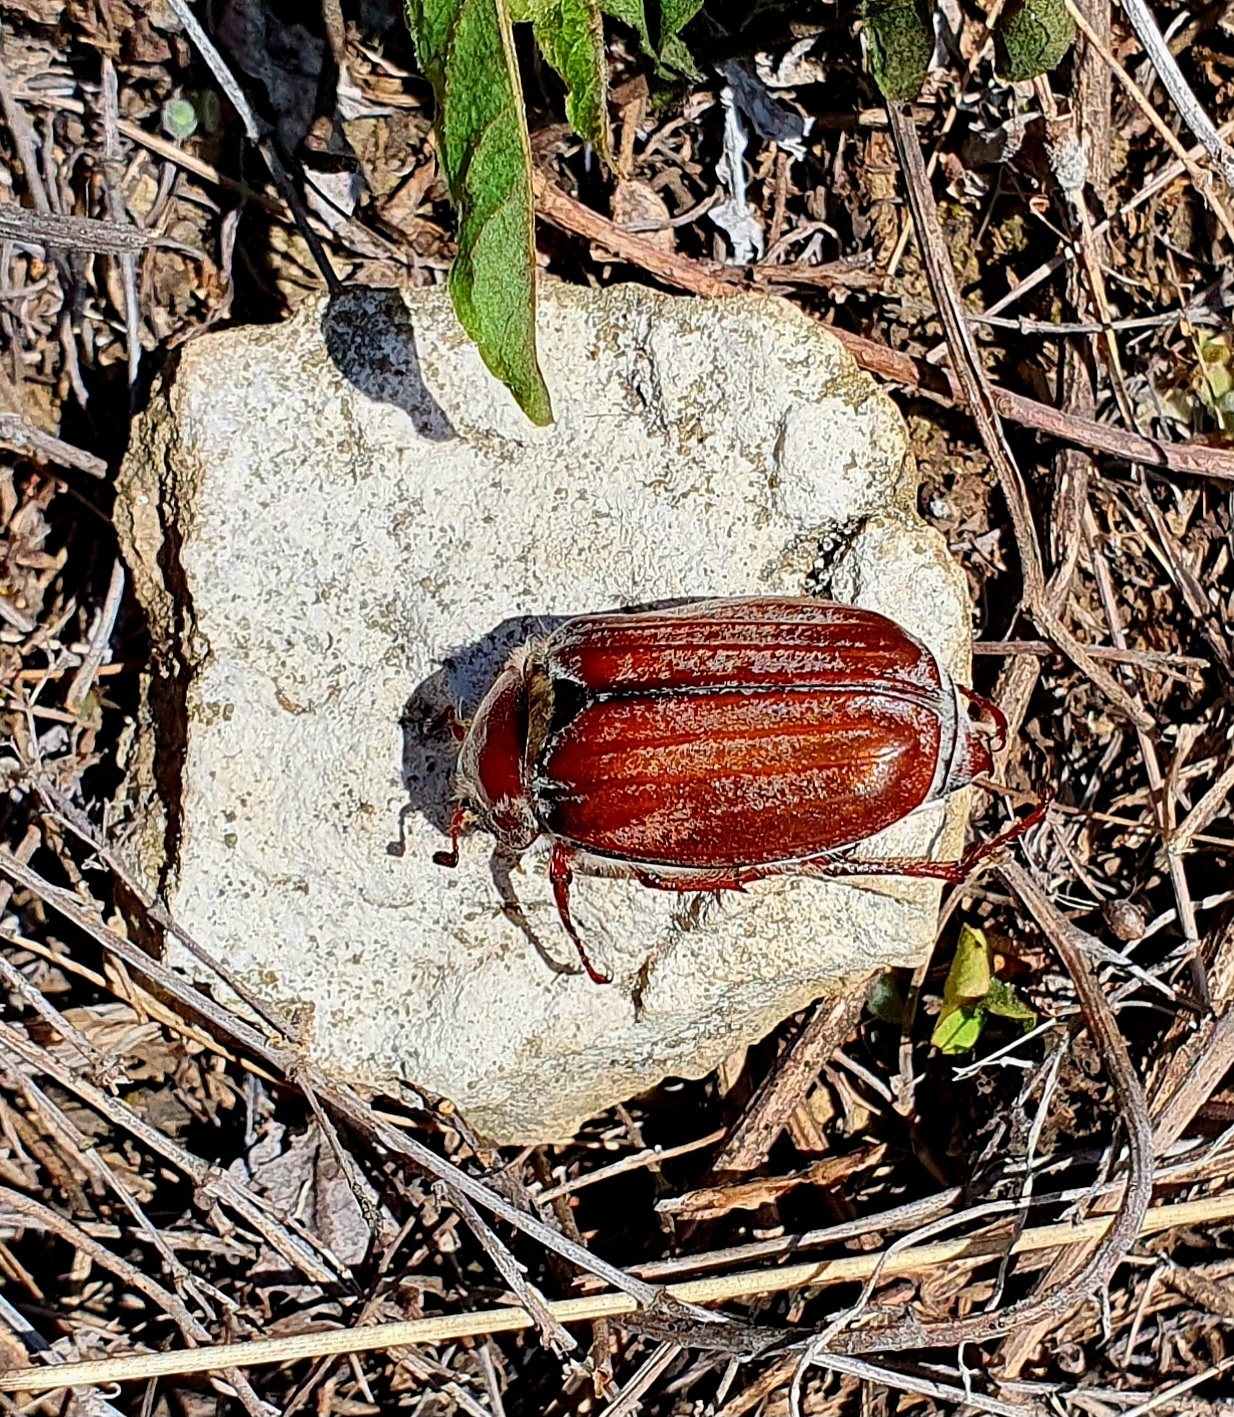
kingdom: Animalia
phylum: Arthropoda
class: Insecta
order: Coleoptera
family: Scarabaeidae
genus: Melolontha
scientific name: Melolontha hippocastani
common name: Chestnut cockchafer
